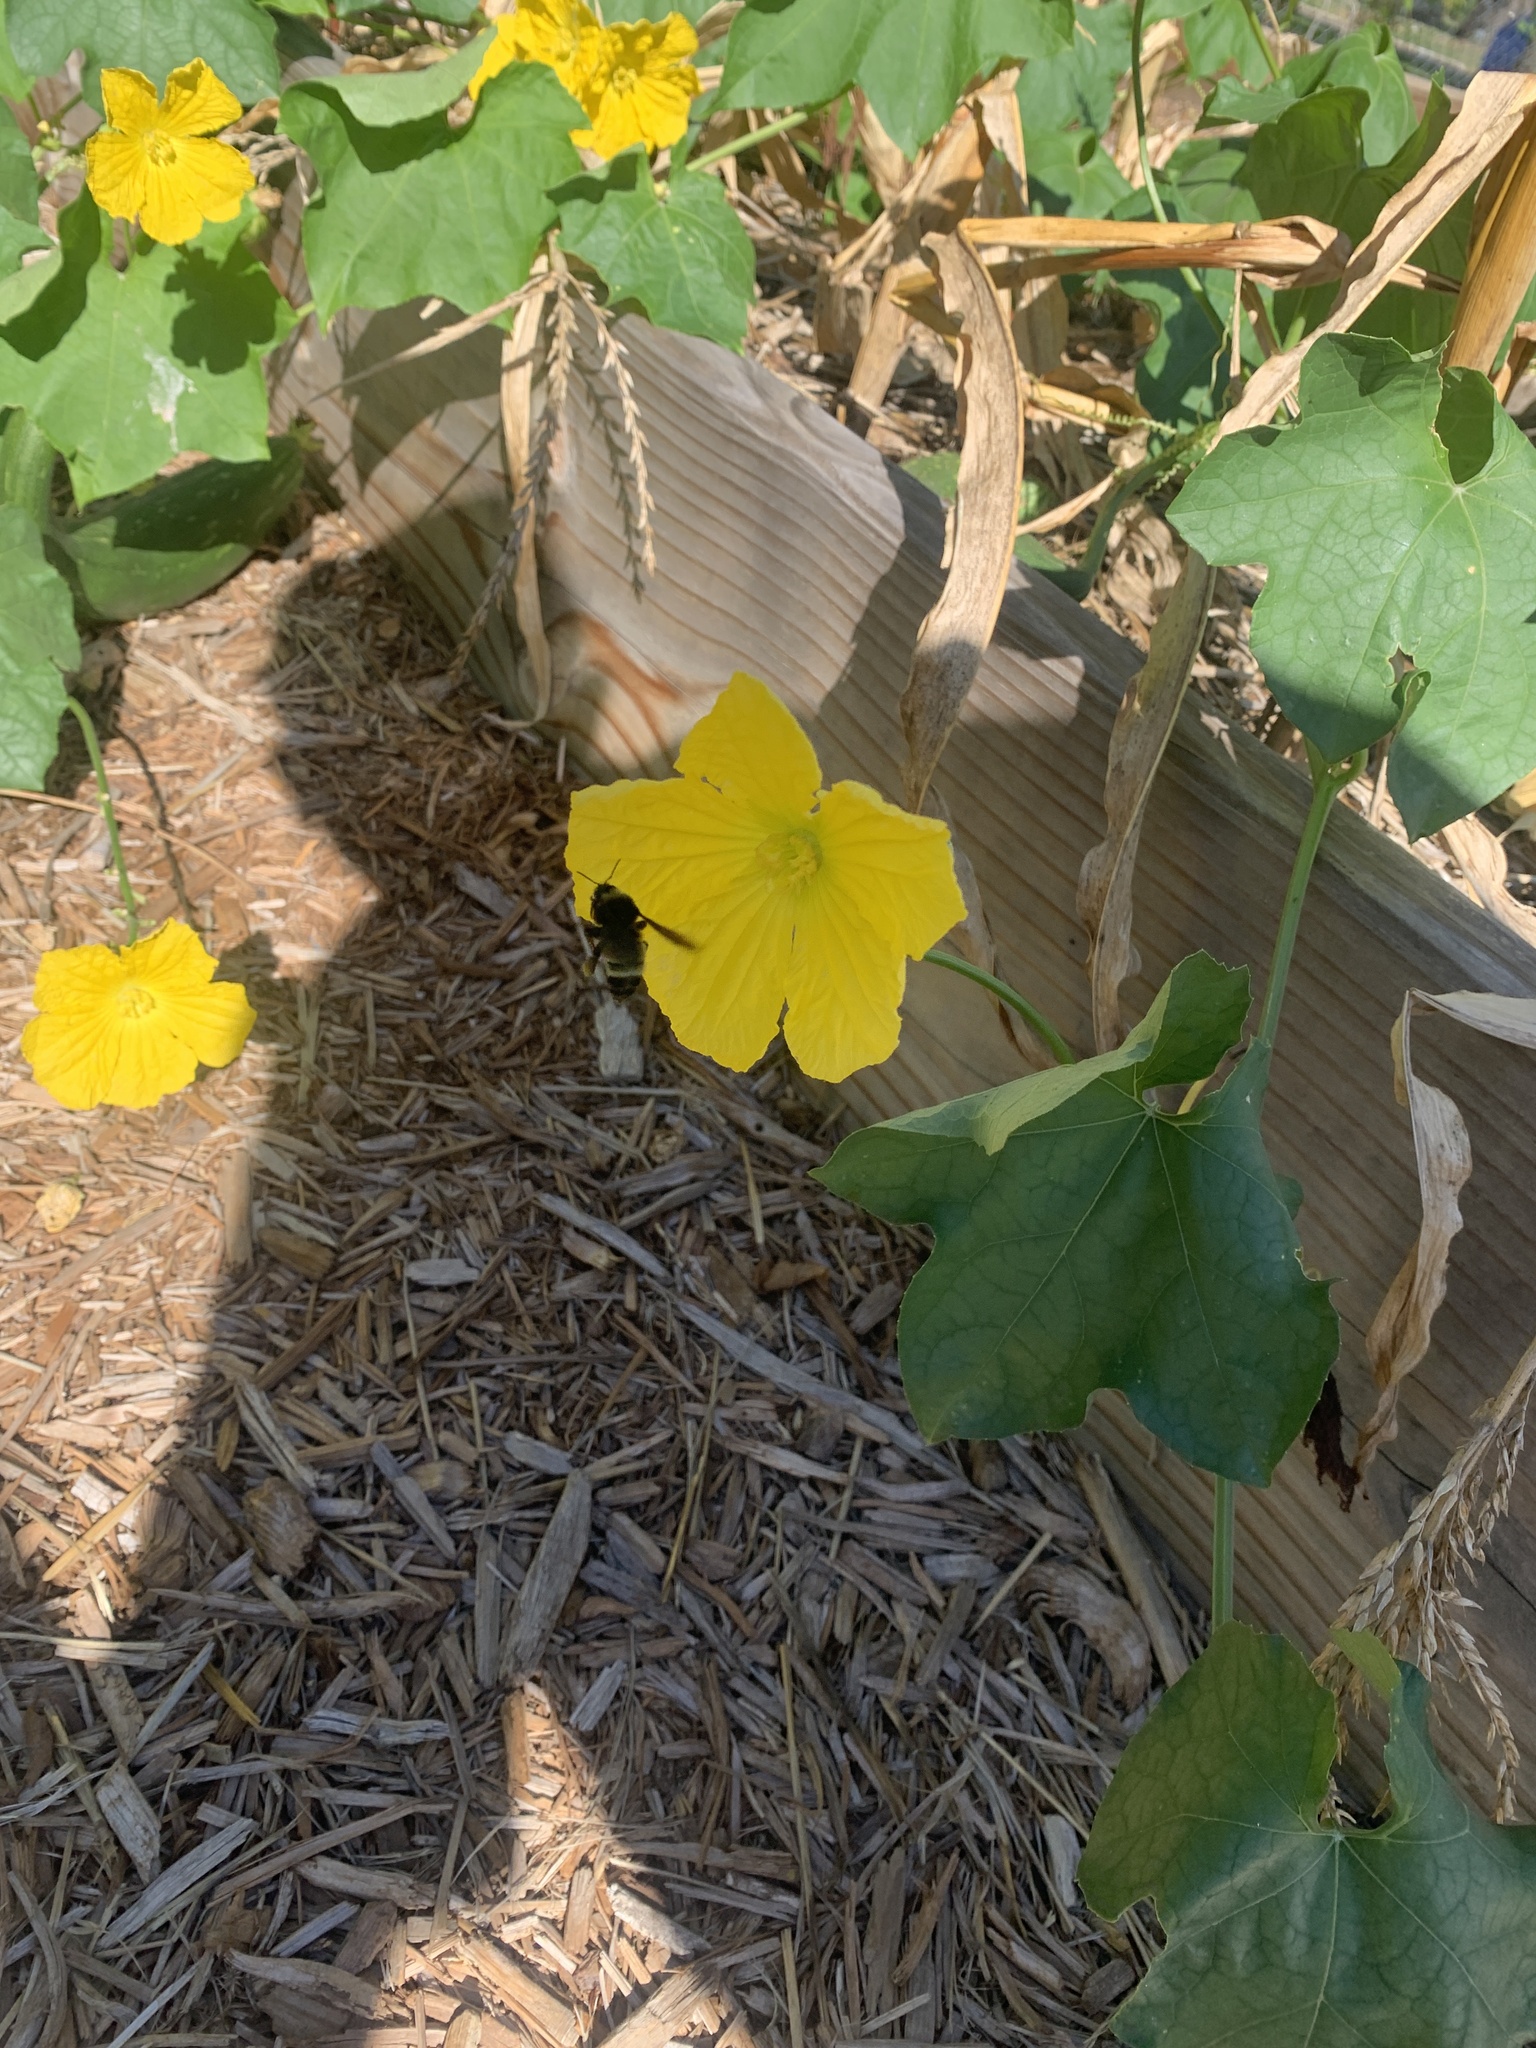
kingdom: Animalia
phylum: Arthropoda
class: Insecta
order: Hymenoptera
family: Apidae
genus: Bombus
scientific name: Bombus pensylvanicus
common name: Bumble bee
